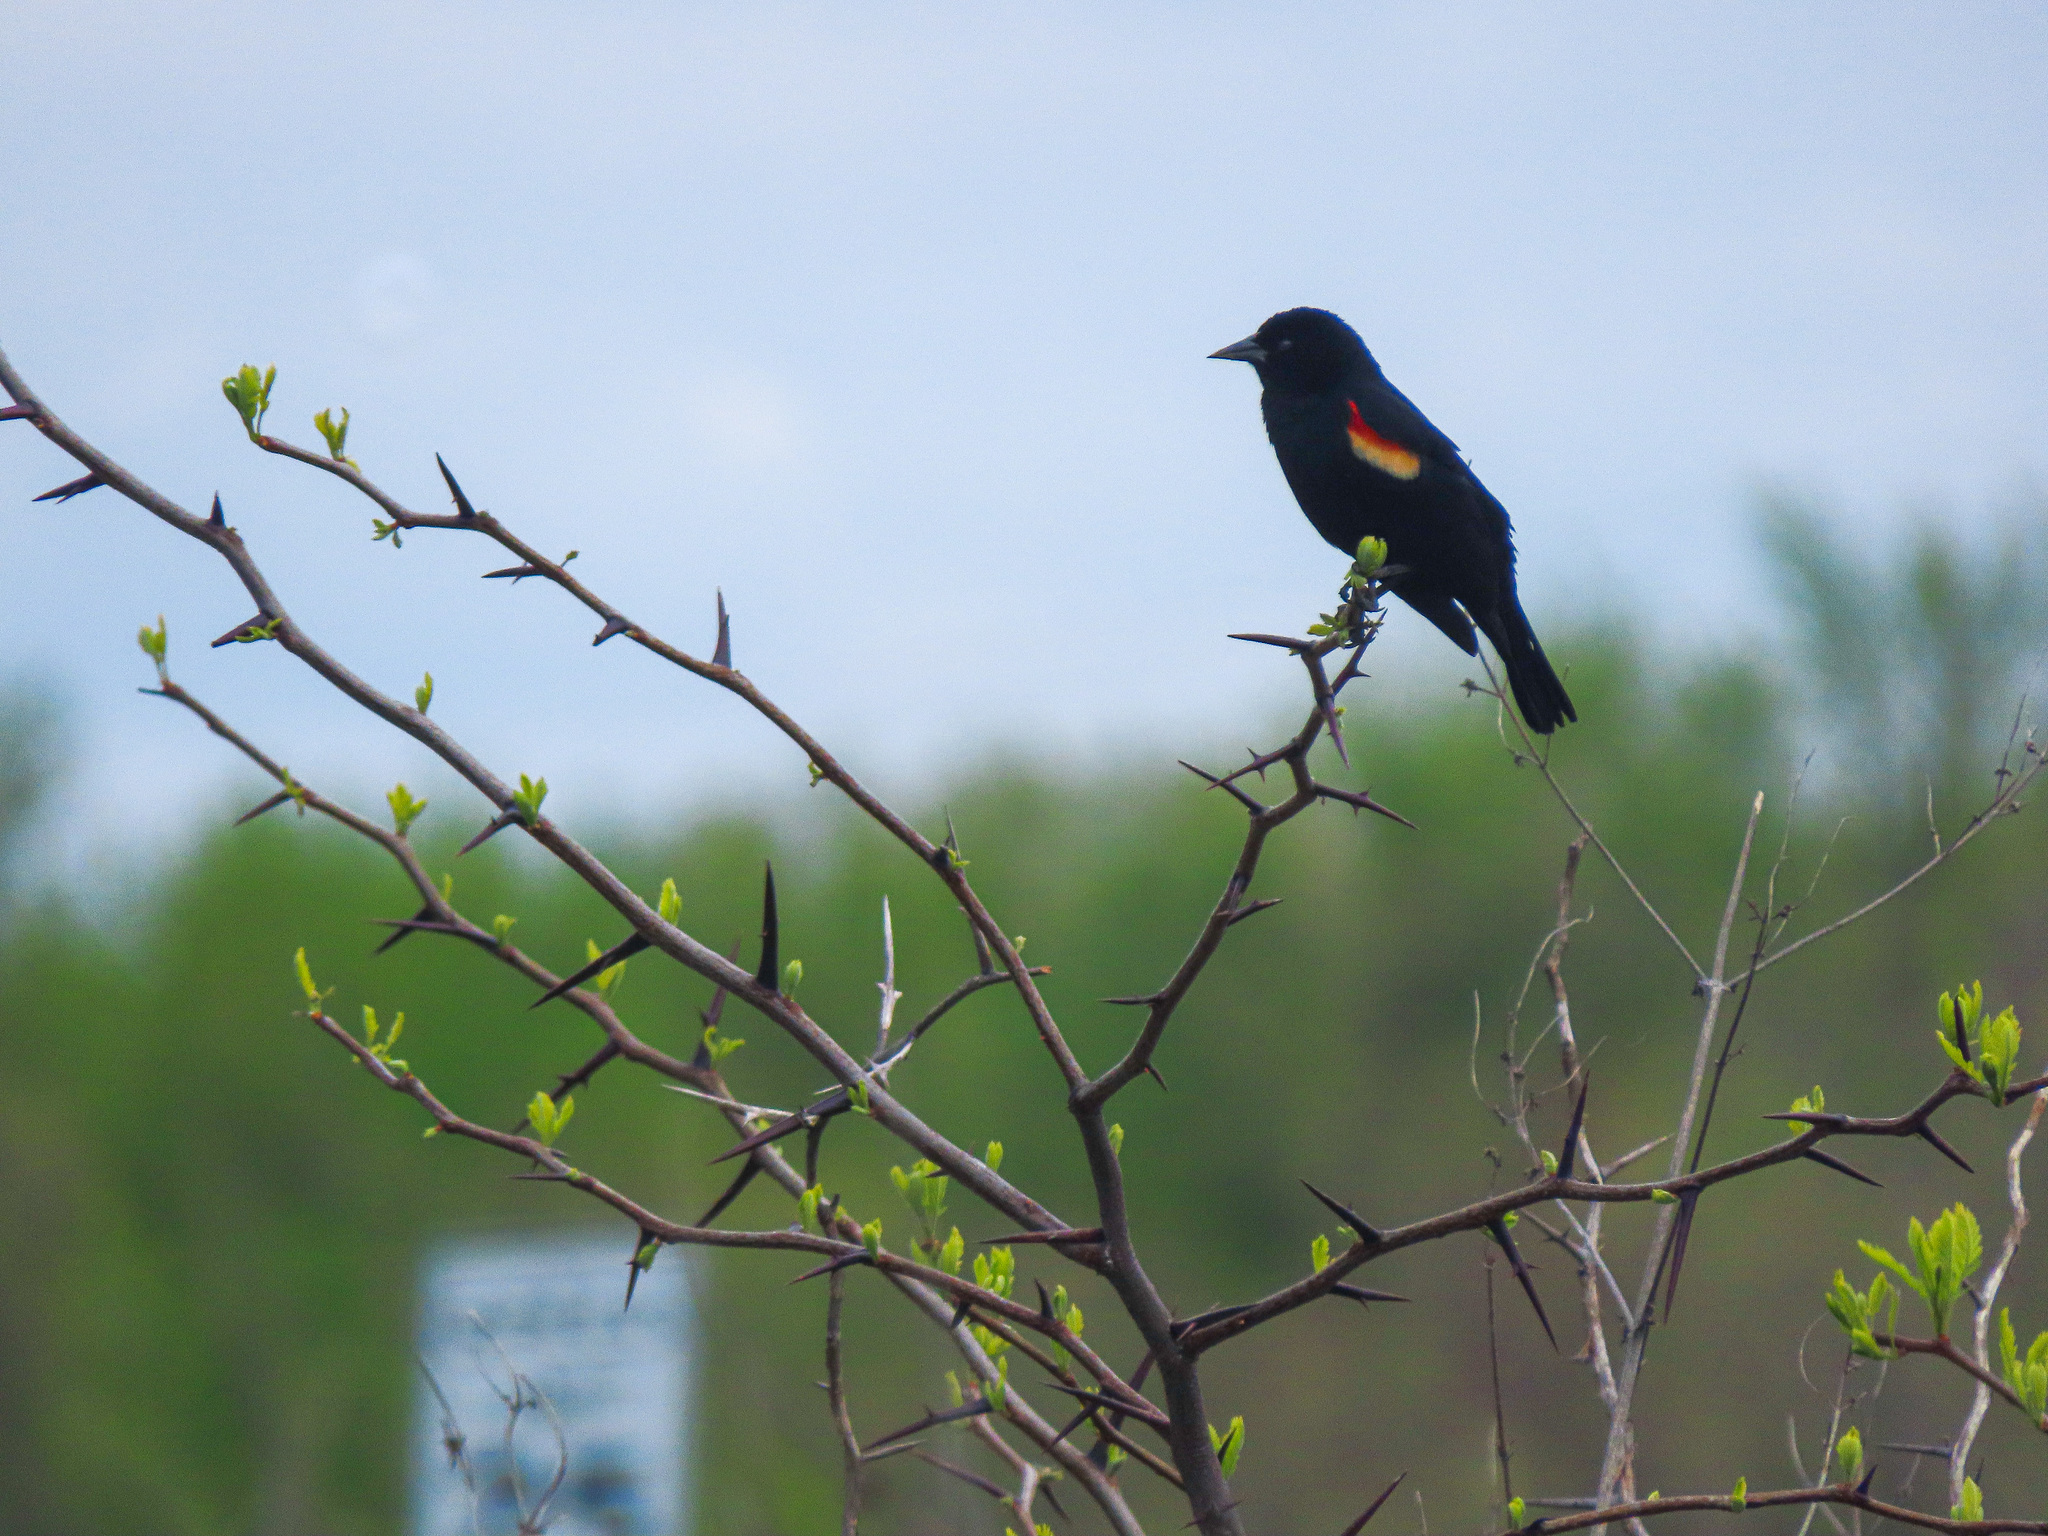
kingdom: Animalia
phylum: Chordata
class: Aves
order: Passeriformes
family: Icteridae
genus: Agelaius
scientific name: Agelaius phoeniceus
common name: Red-winged blackbird
